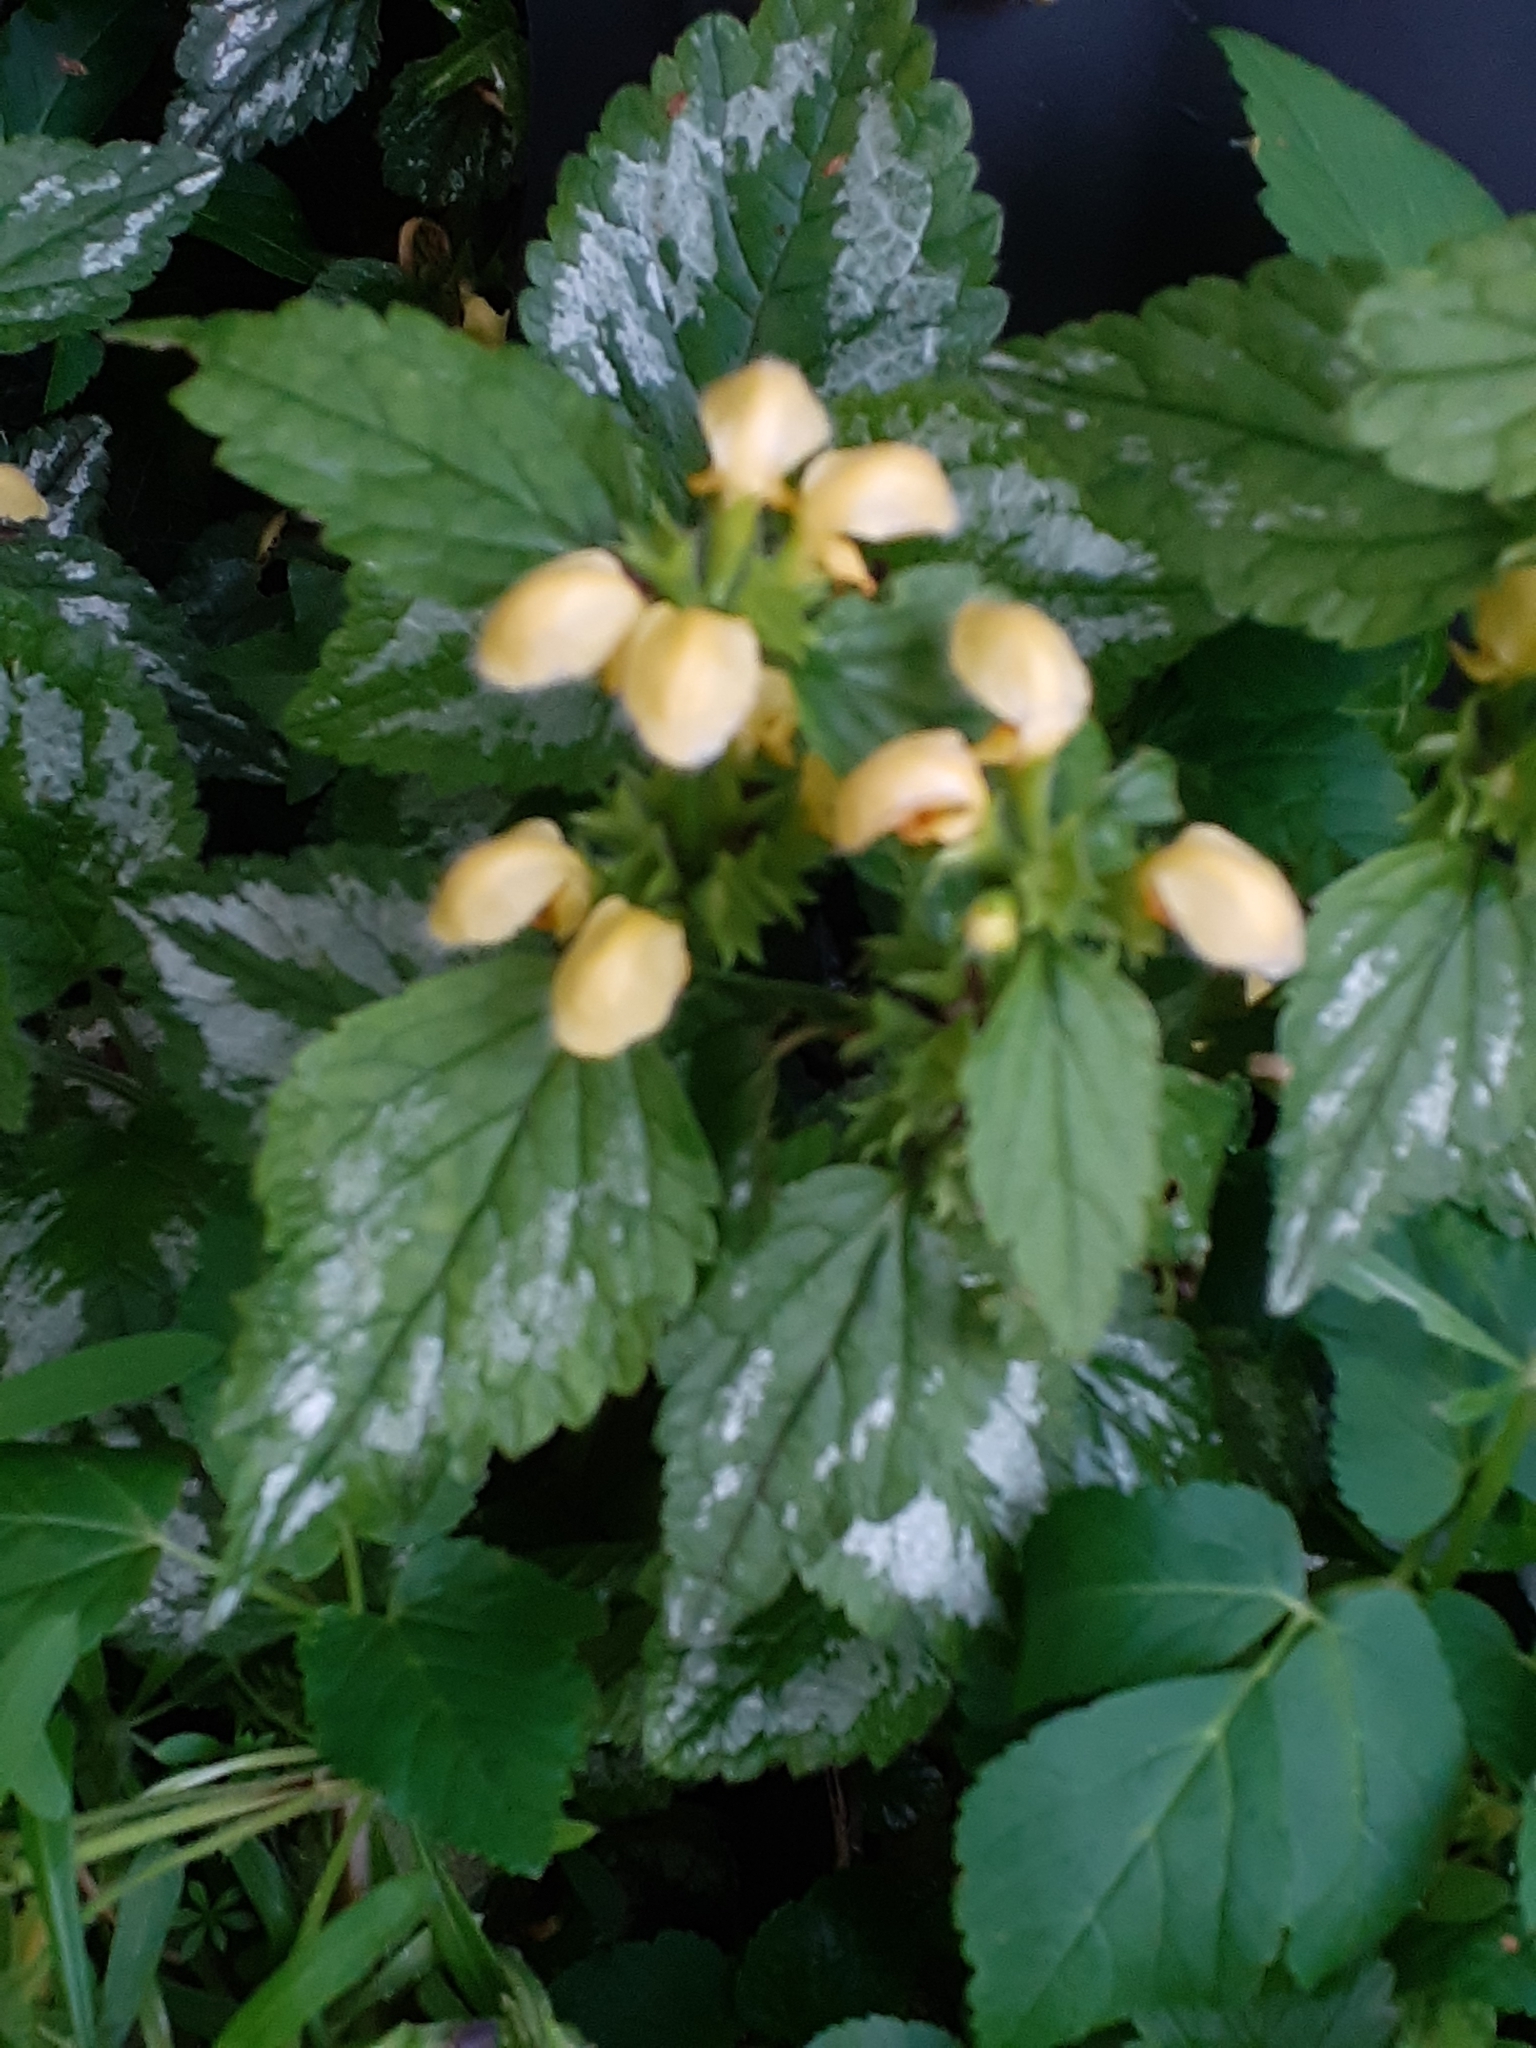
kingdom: Plantae
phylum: Tracheophyta
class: Magnoliopsida
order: Lamiales
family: Lamiaceae
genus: Lamium
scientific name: Lamium galeobdolon
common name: Yellow archangel
